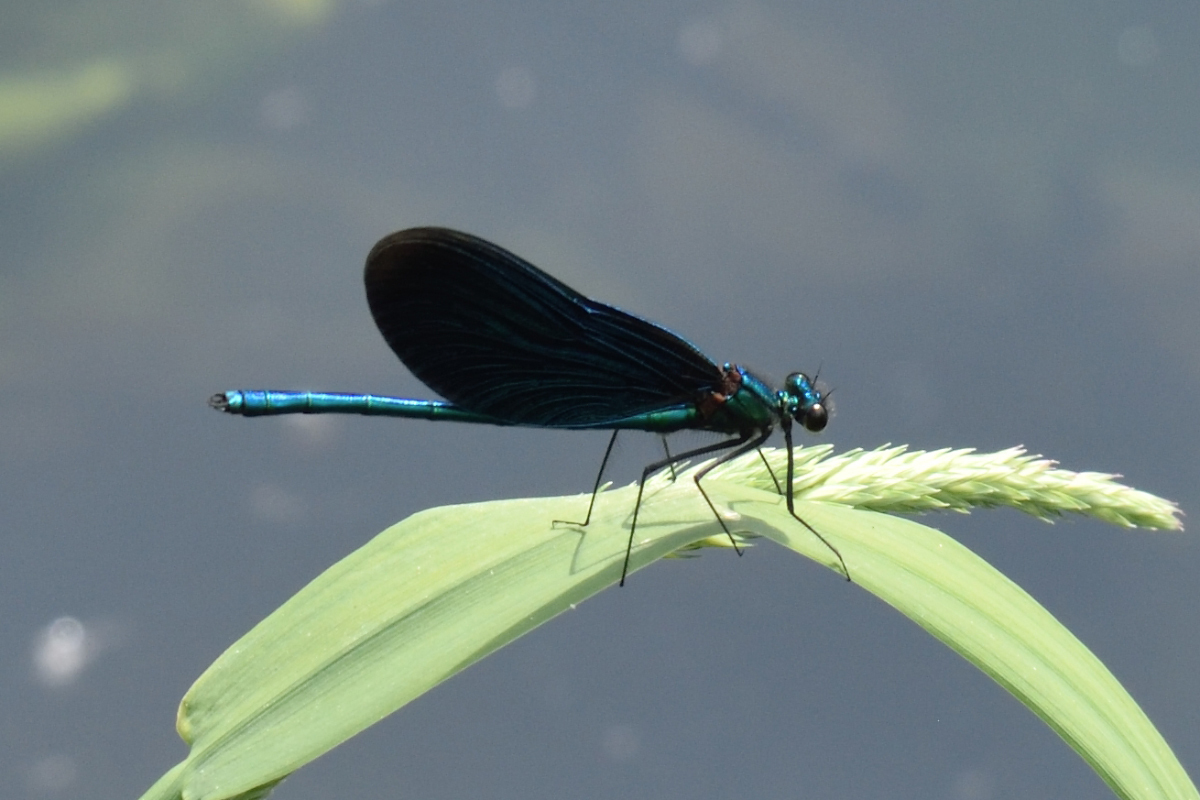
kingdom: Animalia
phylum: Arthropoda
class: Insecta
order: Odonata
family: Calopterygidae
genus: Calopteryx
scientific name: Calopteryx virgo
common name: Beautiful demoiselle
